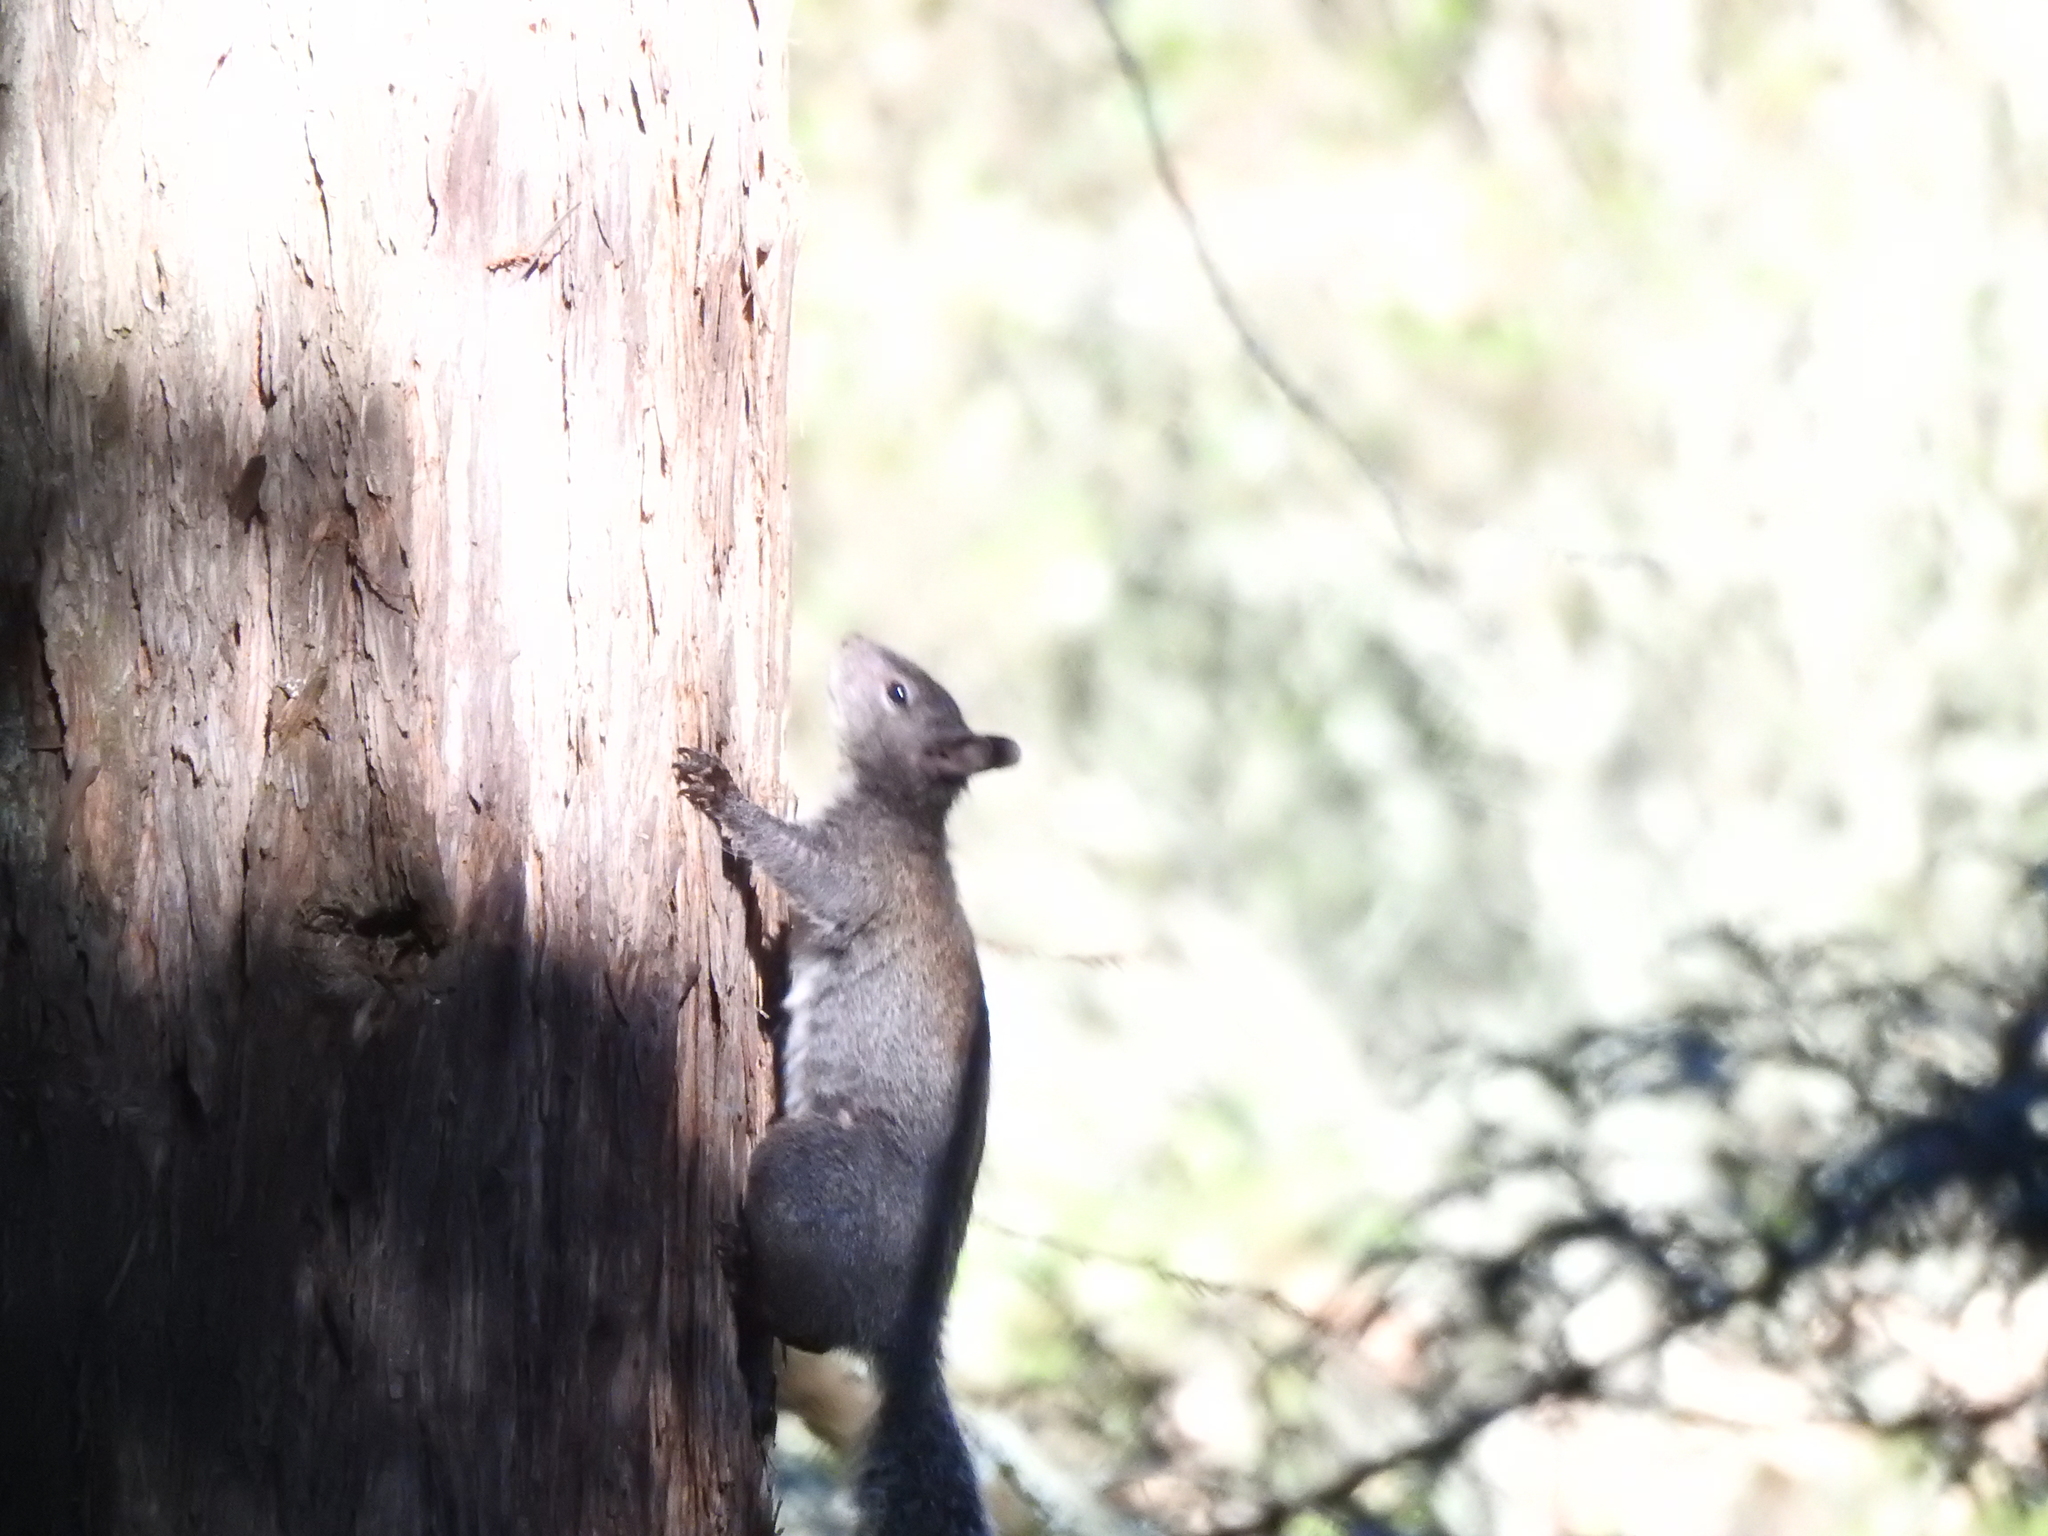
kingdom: Animalia
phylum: Chordata
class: Mammalia
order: Rodentia
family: Sciuridae
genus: Sciurus
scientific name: Sciurus griseus
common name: Western gray squirrel
